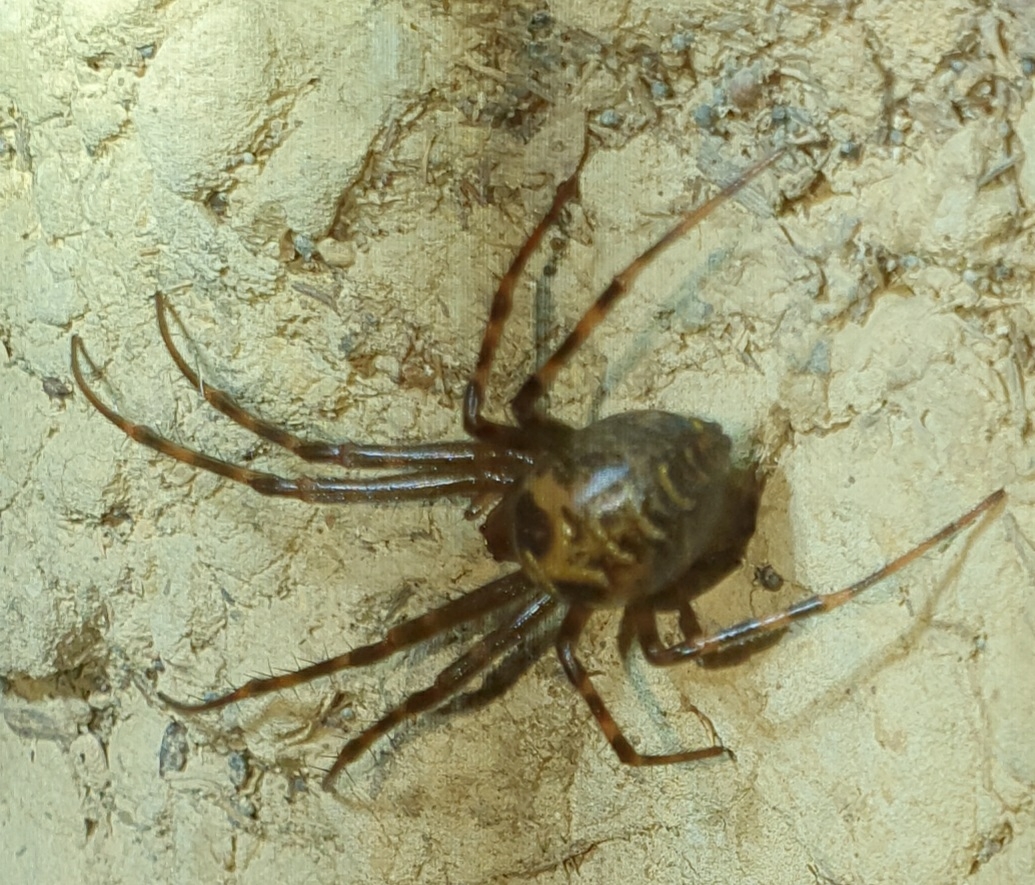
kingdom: Animalia
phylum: Arthropoda
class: Arachnida
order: Araneae
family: Tetragnathidae
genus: Meta
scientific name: Meta menardi
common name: Cave spider
